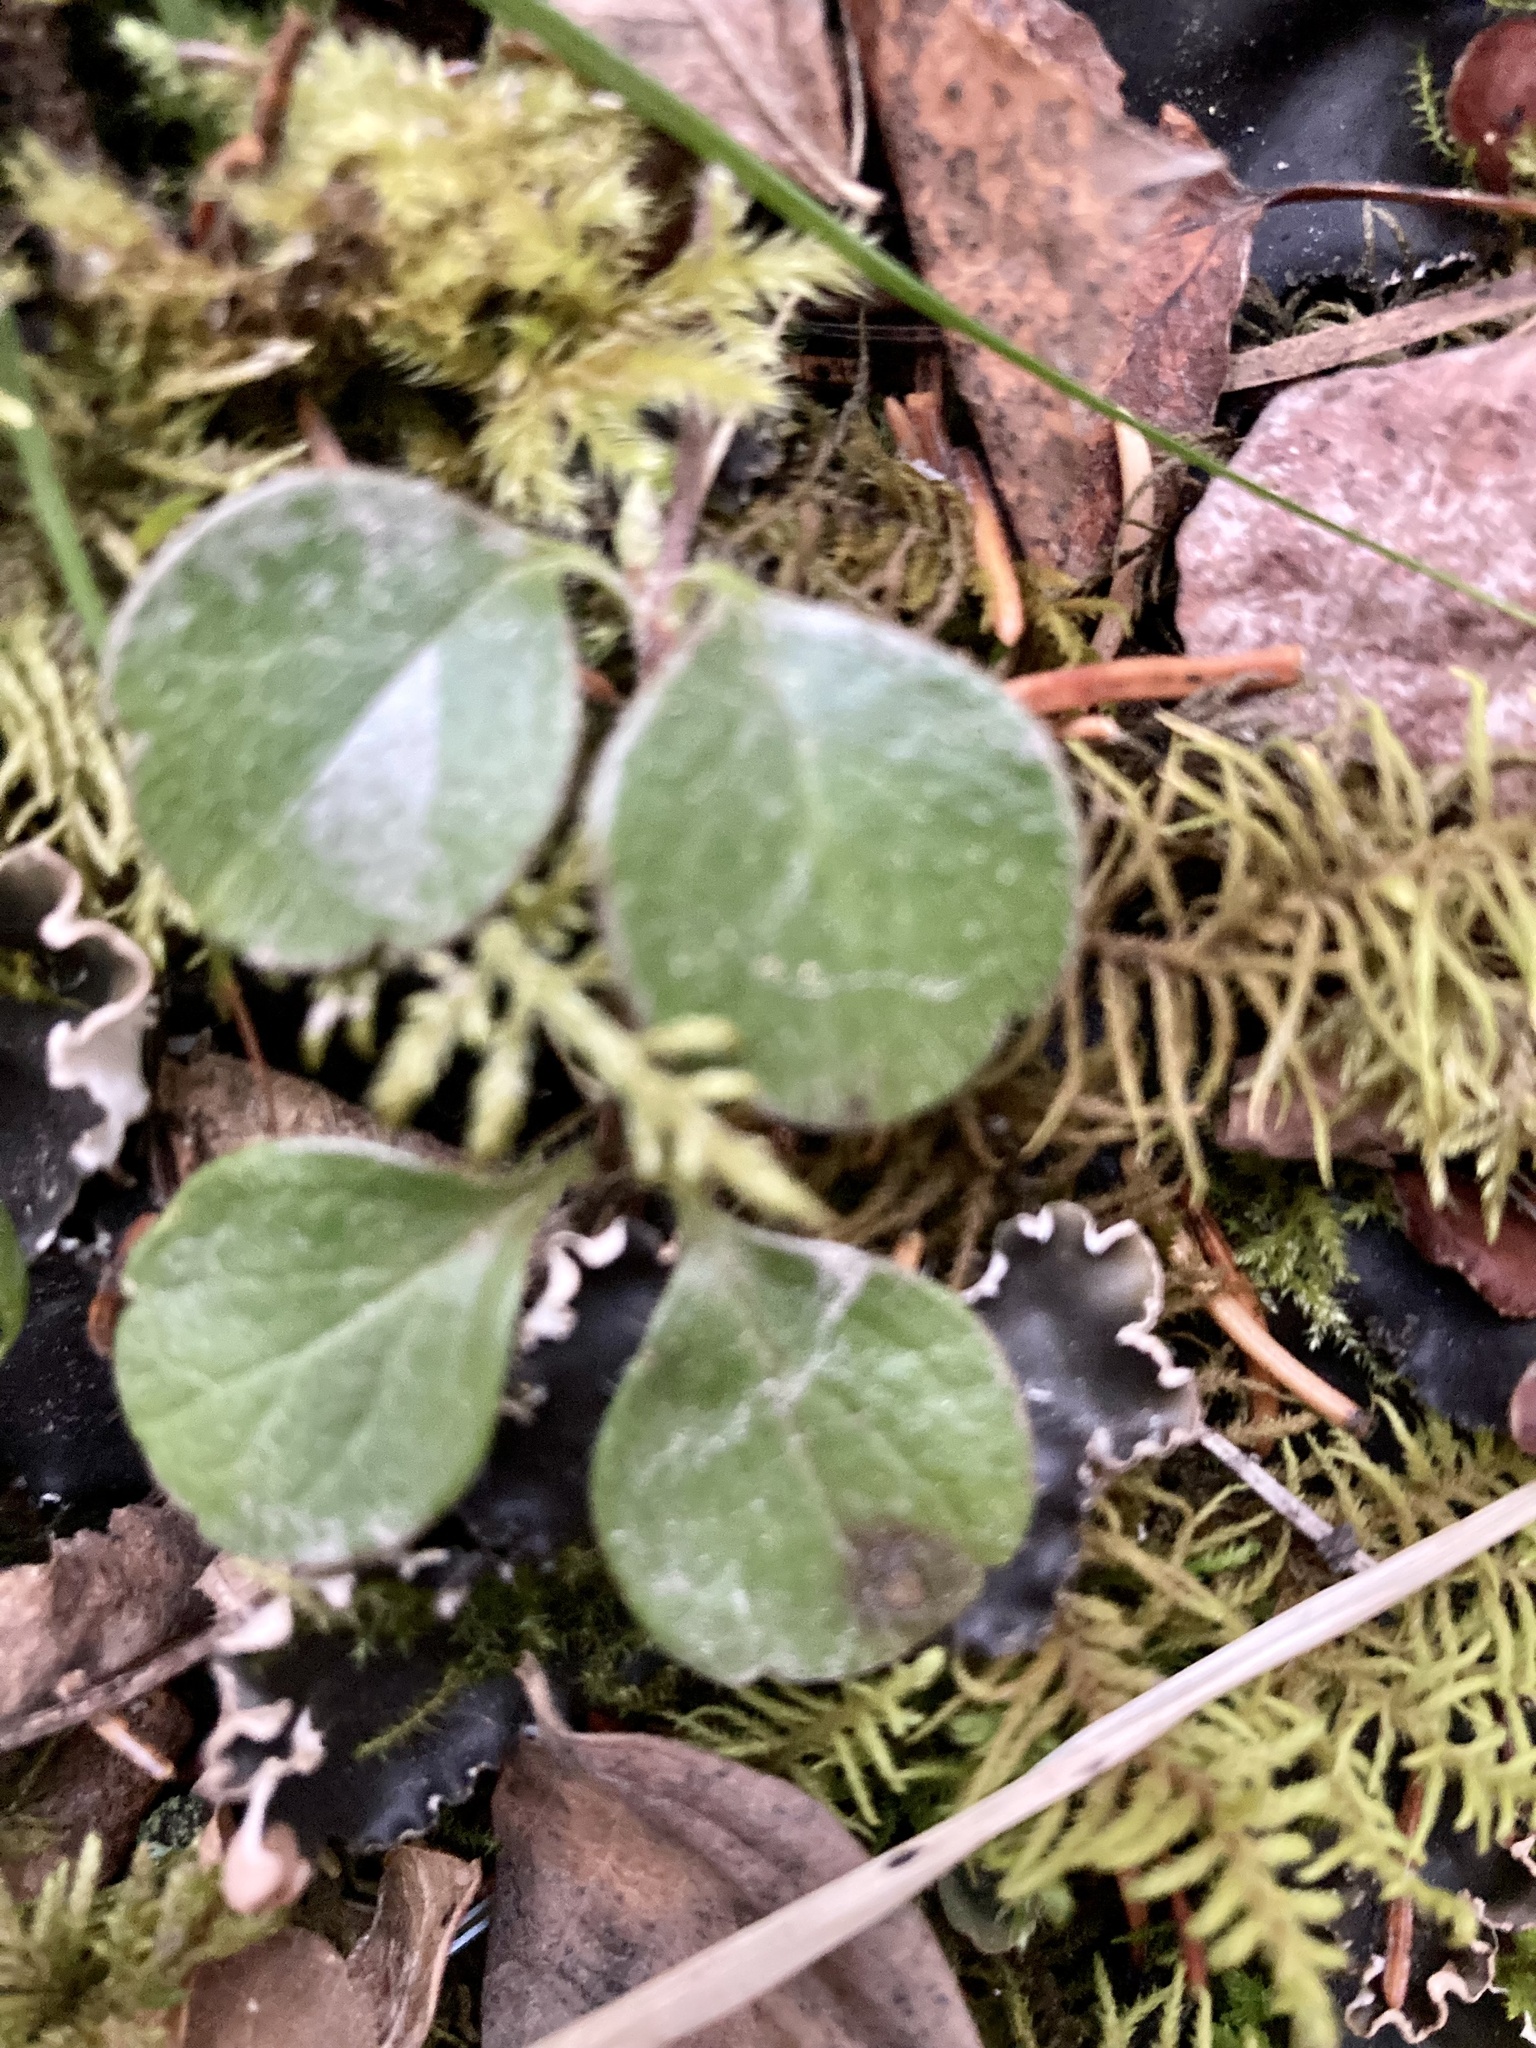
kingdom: Plantae
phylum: Tracheophyta
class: Magnoliopsida
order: Dipsacales
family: Caprifoliaceae
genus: Linnaea
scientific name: Linnaea borealis
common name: Twinflower
